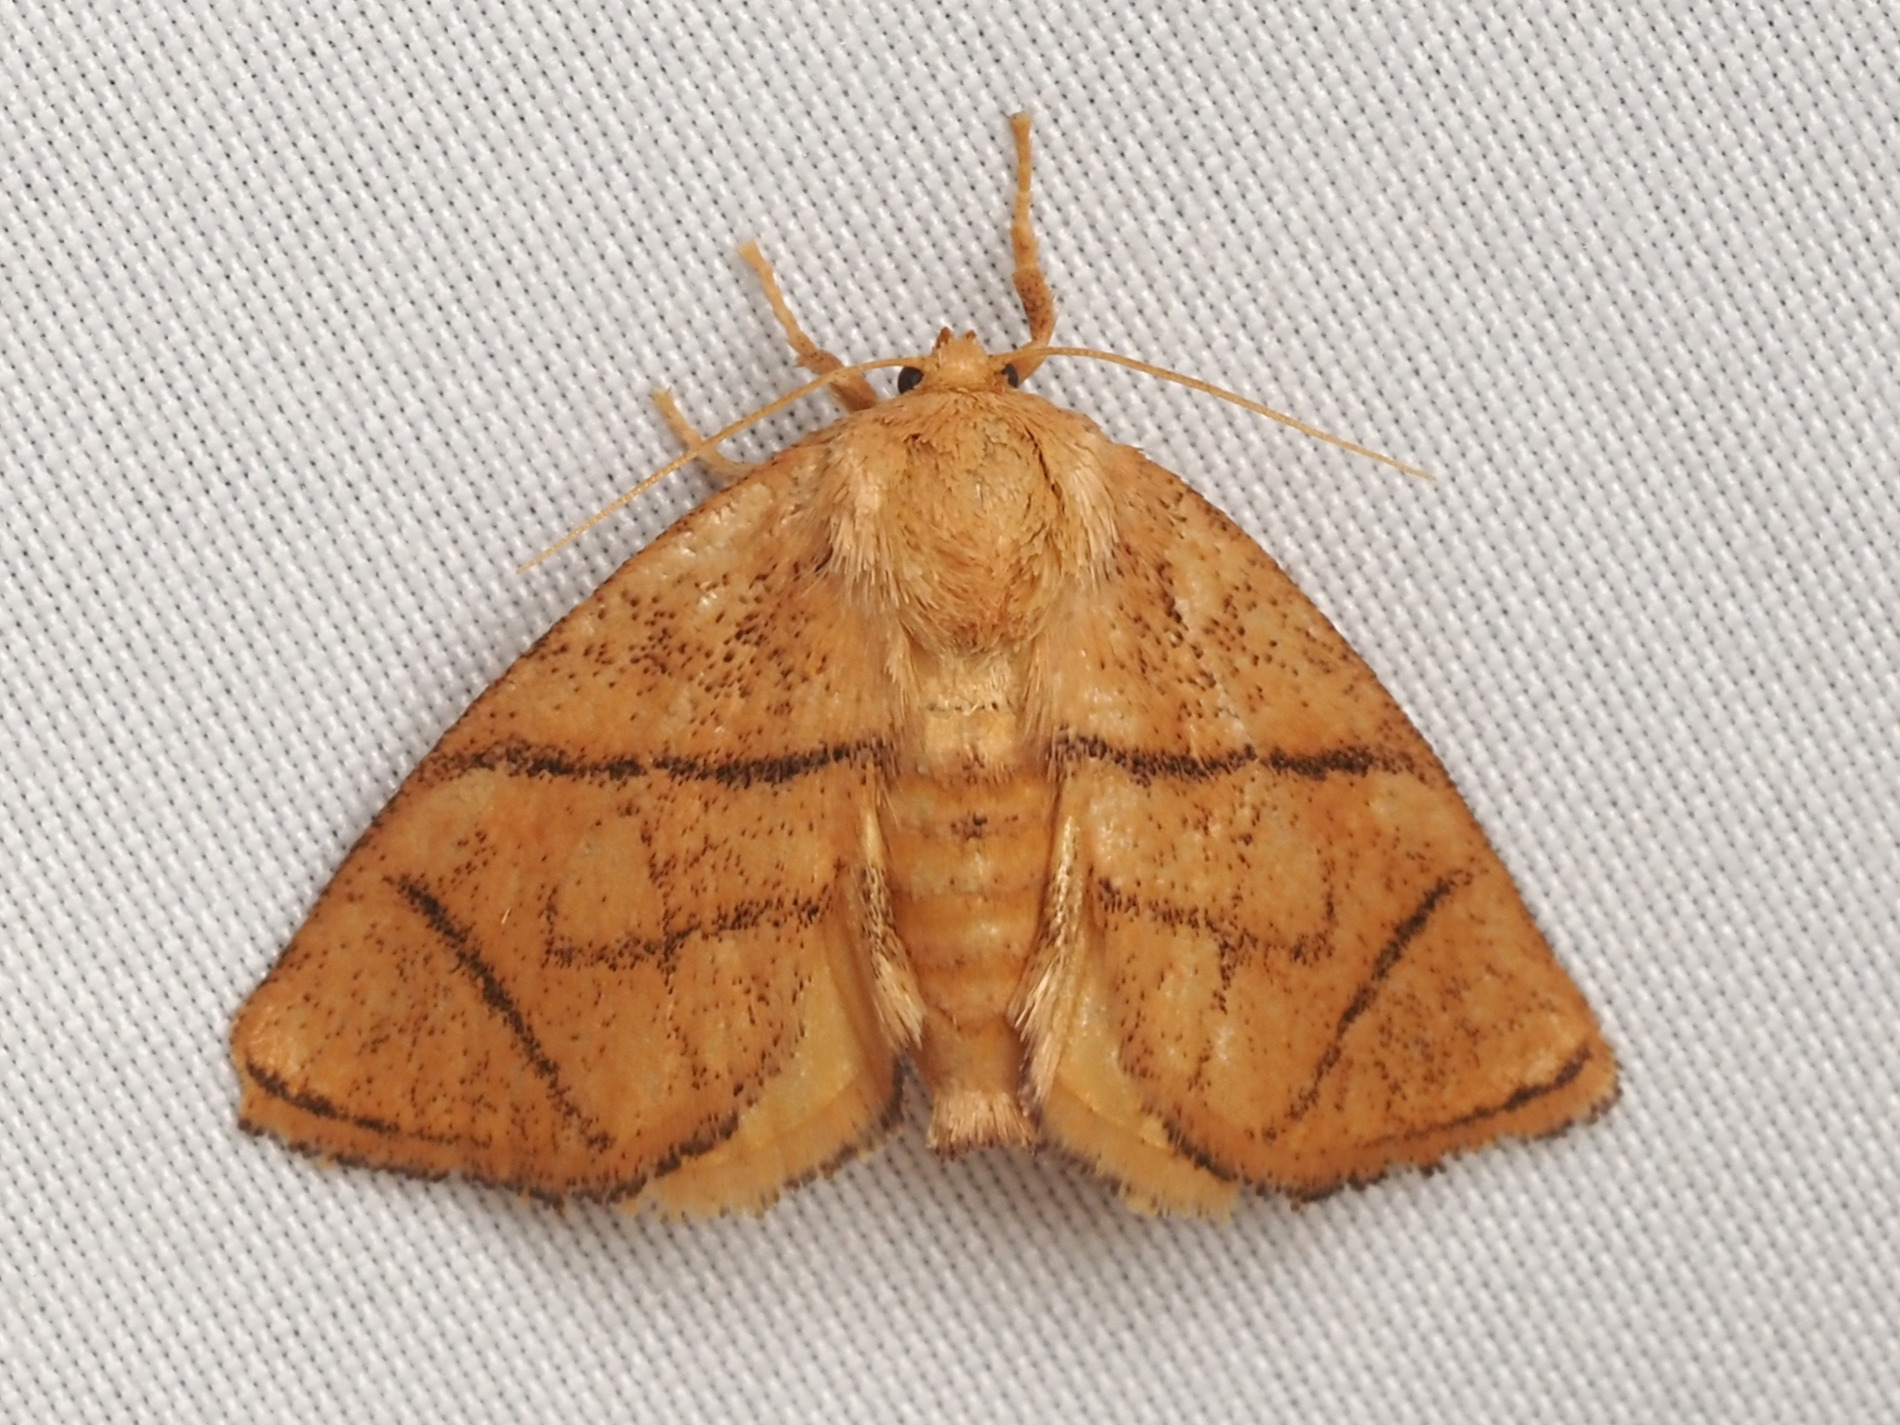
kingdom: Animalia
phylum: Arthropoda
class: Insecta
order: Lepidoptera
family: Limacodidae
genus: Apoda
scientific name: Apoda y-inversa
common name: Yellow-collared slug moth
